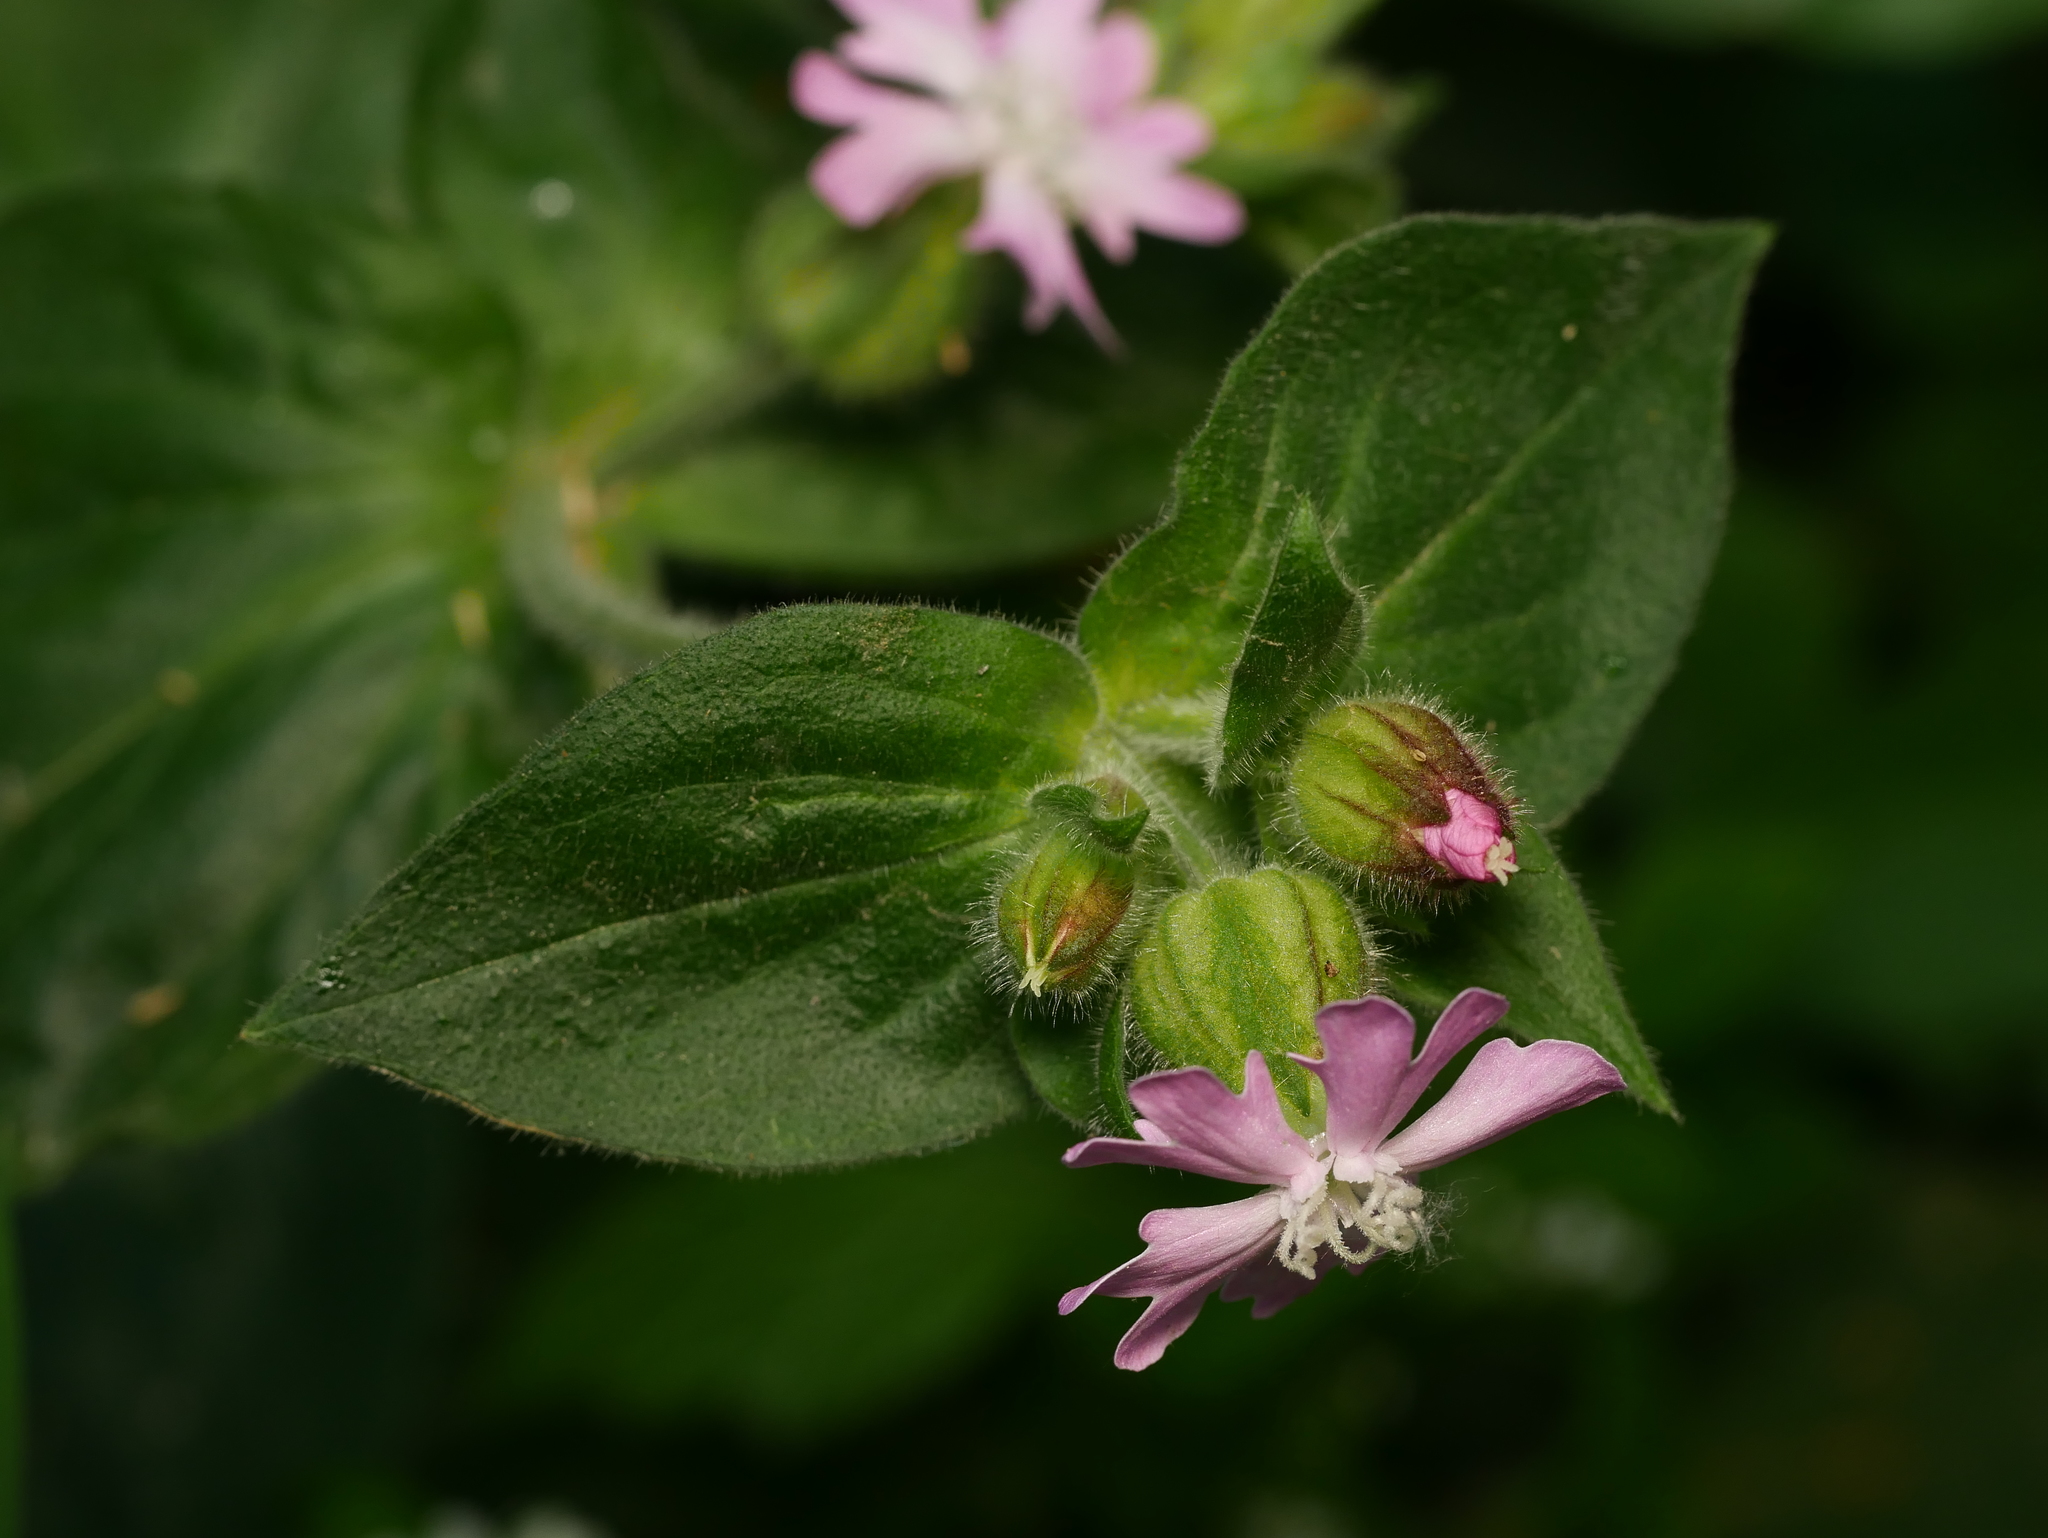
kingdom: Plantae
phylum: Tracheophyta
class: Magnoliopsida
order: Caryophyllales
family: Caryophyllaceae
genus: Silene
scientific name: Silene dioica
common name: Red campion
